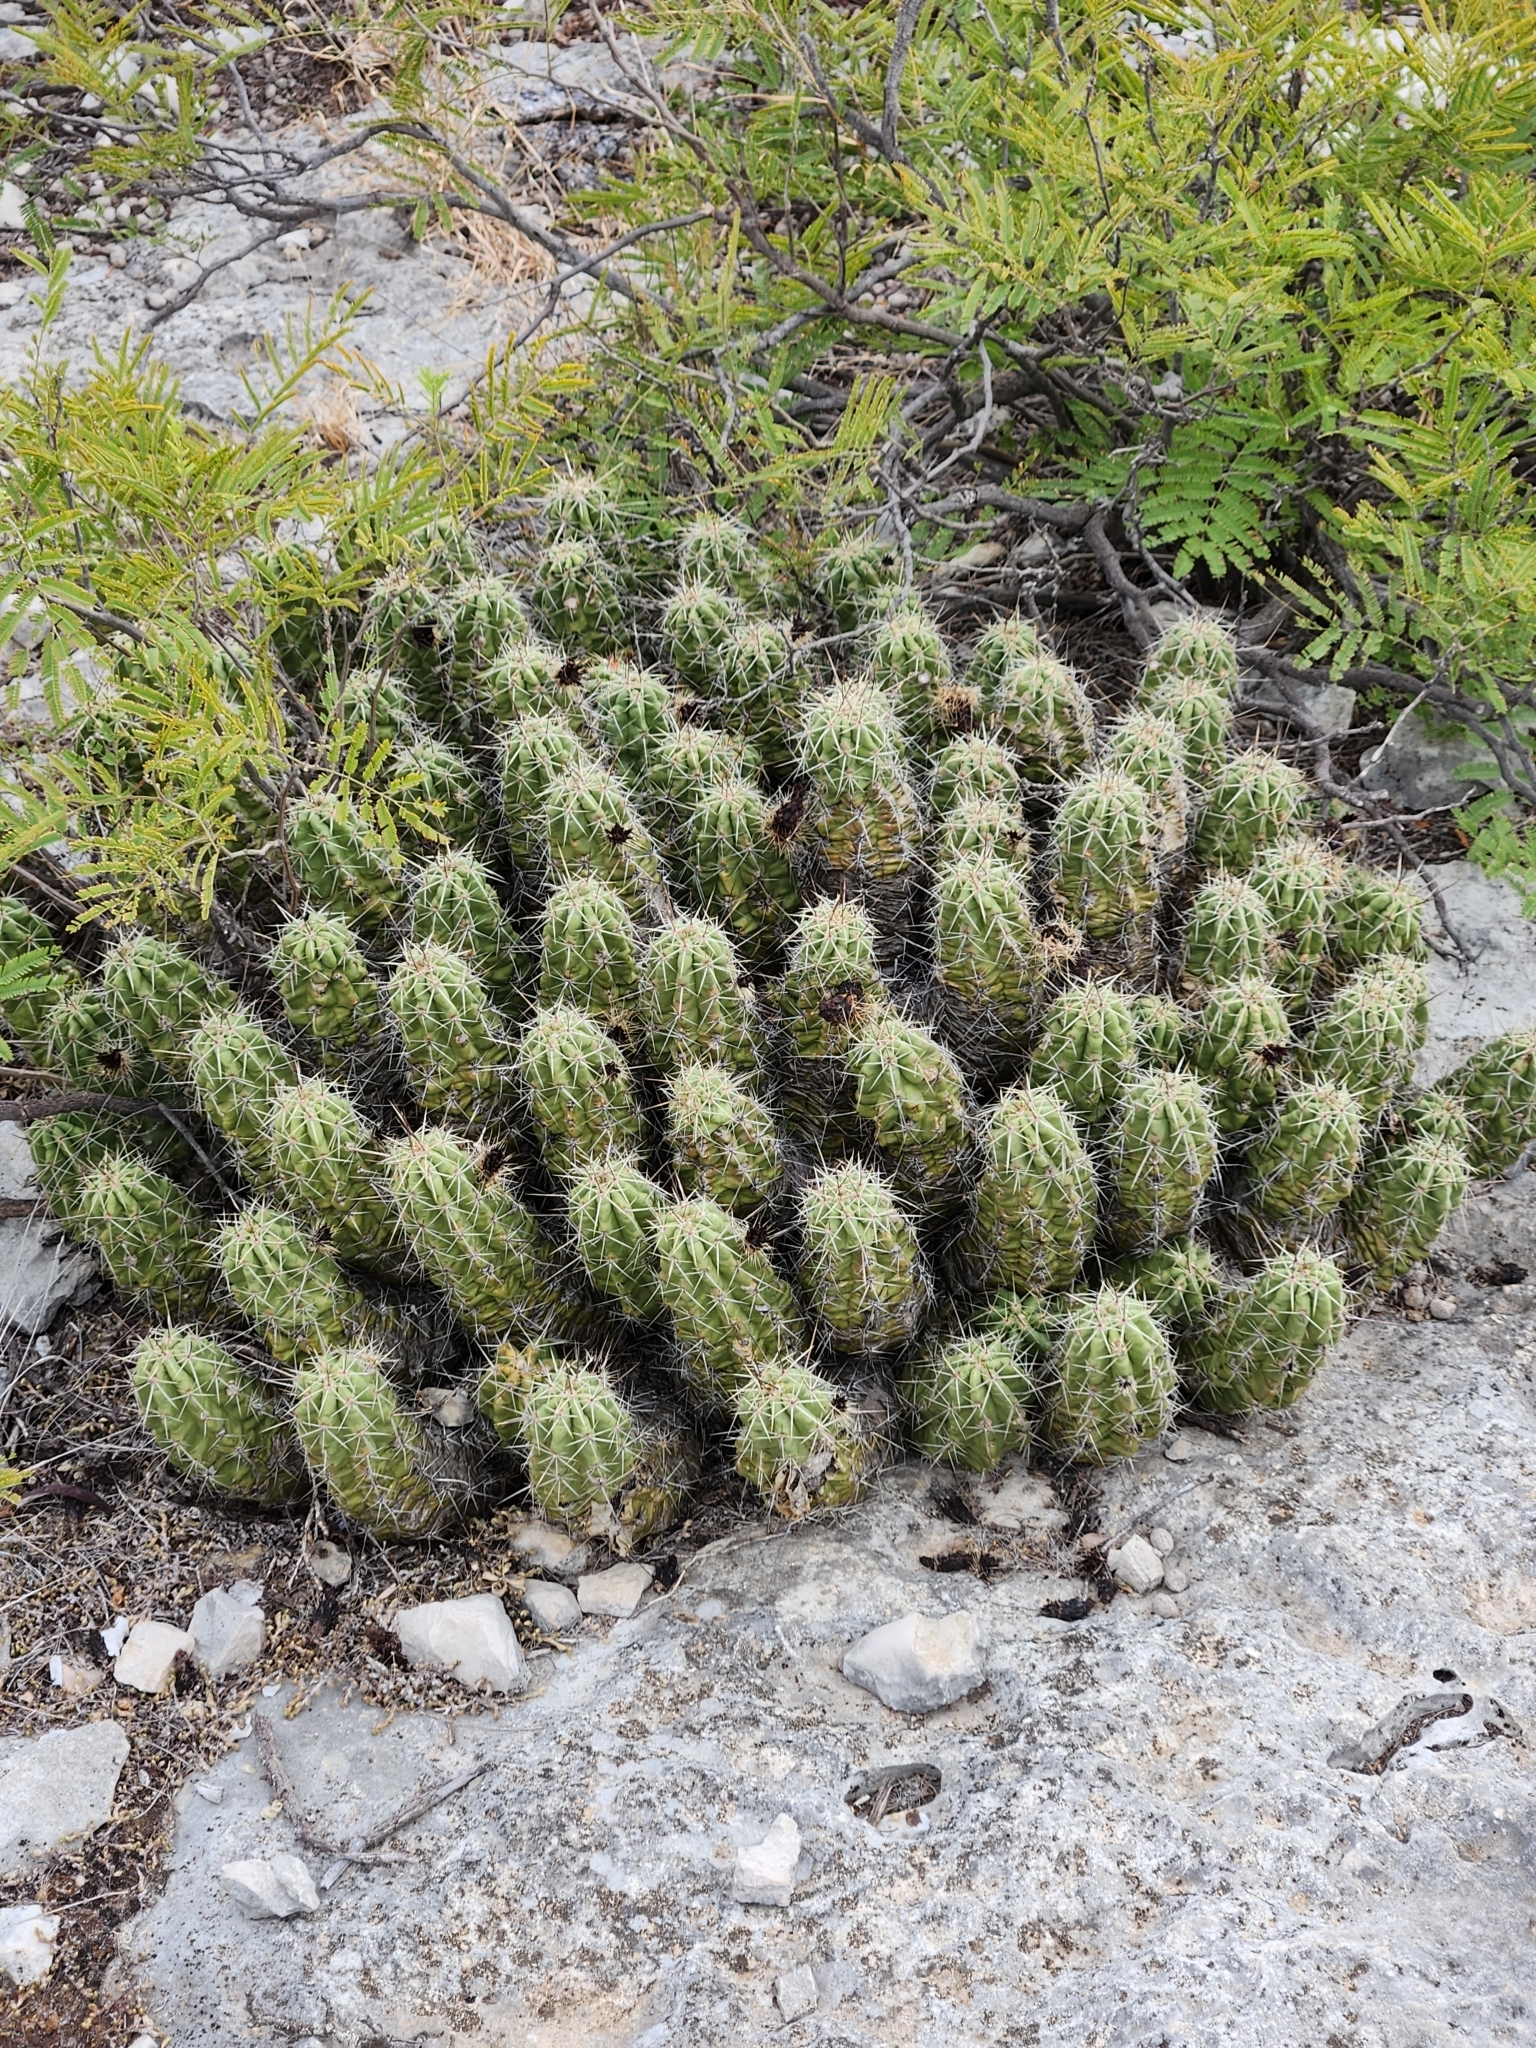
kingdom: Plantae
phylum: Tracheophyta
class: Magnoliopsida
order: Caryophyllales
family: Cactaceae
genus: Echinocereus
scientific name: Echinocereus enneacanthus
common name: Pitaya
